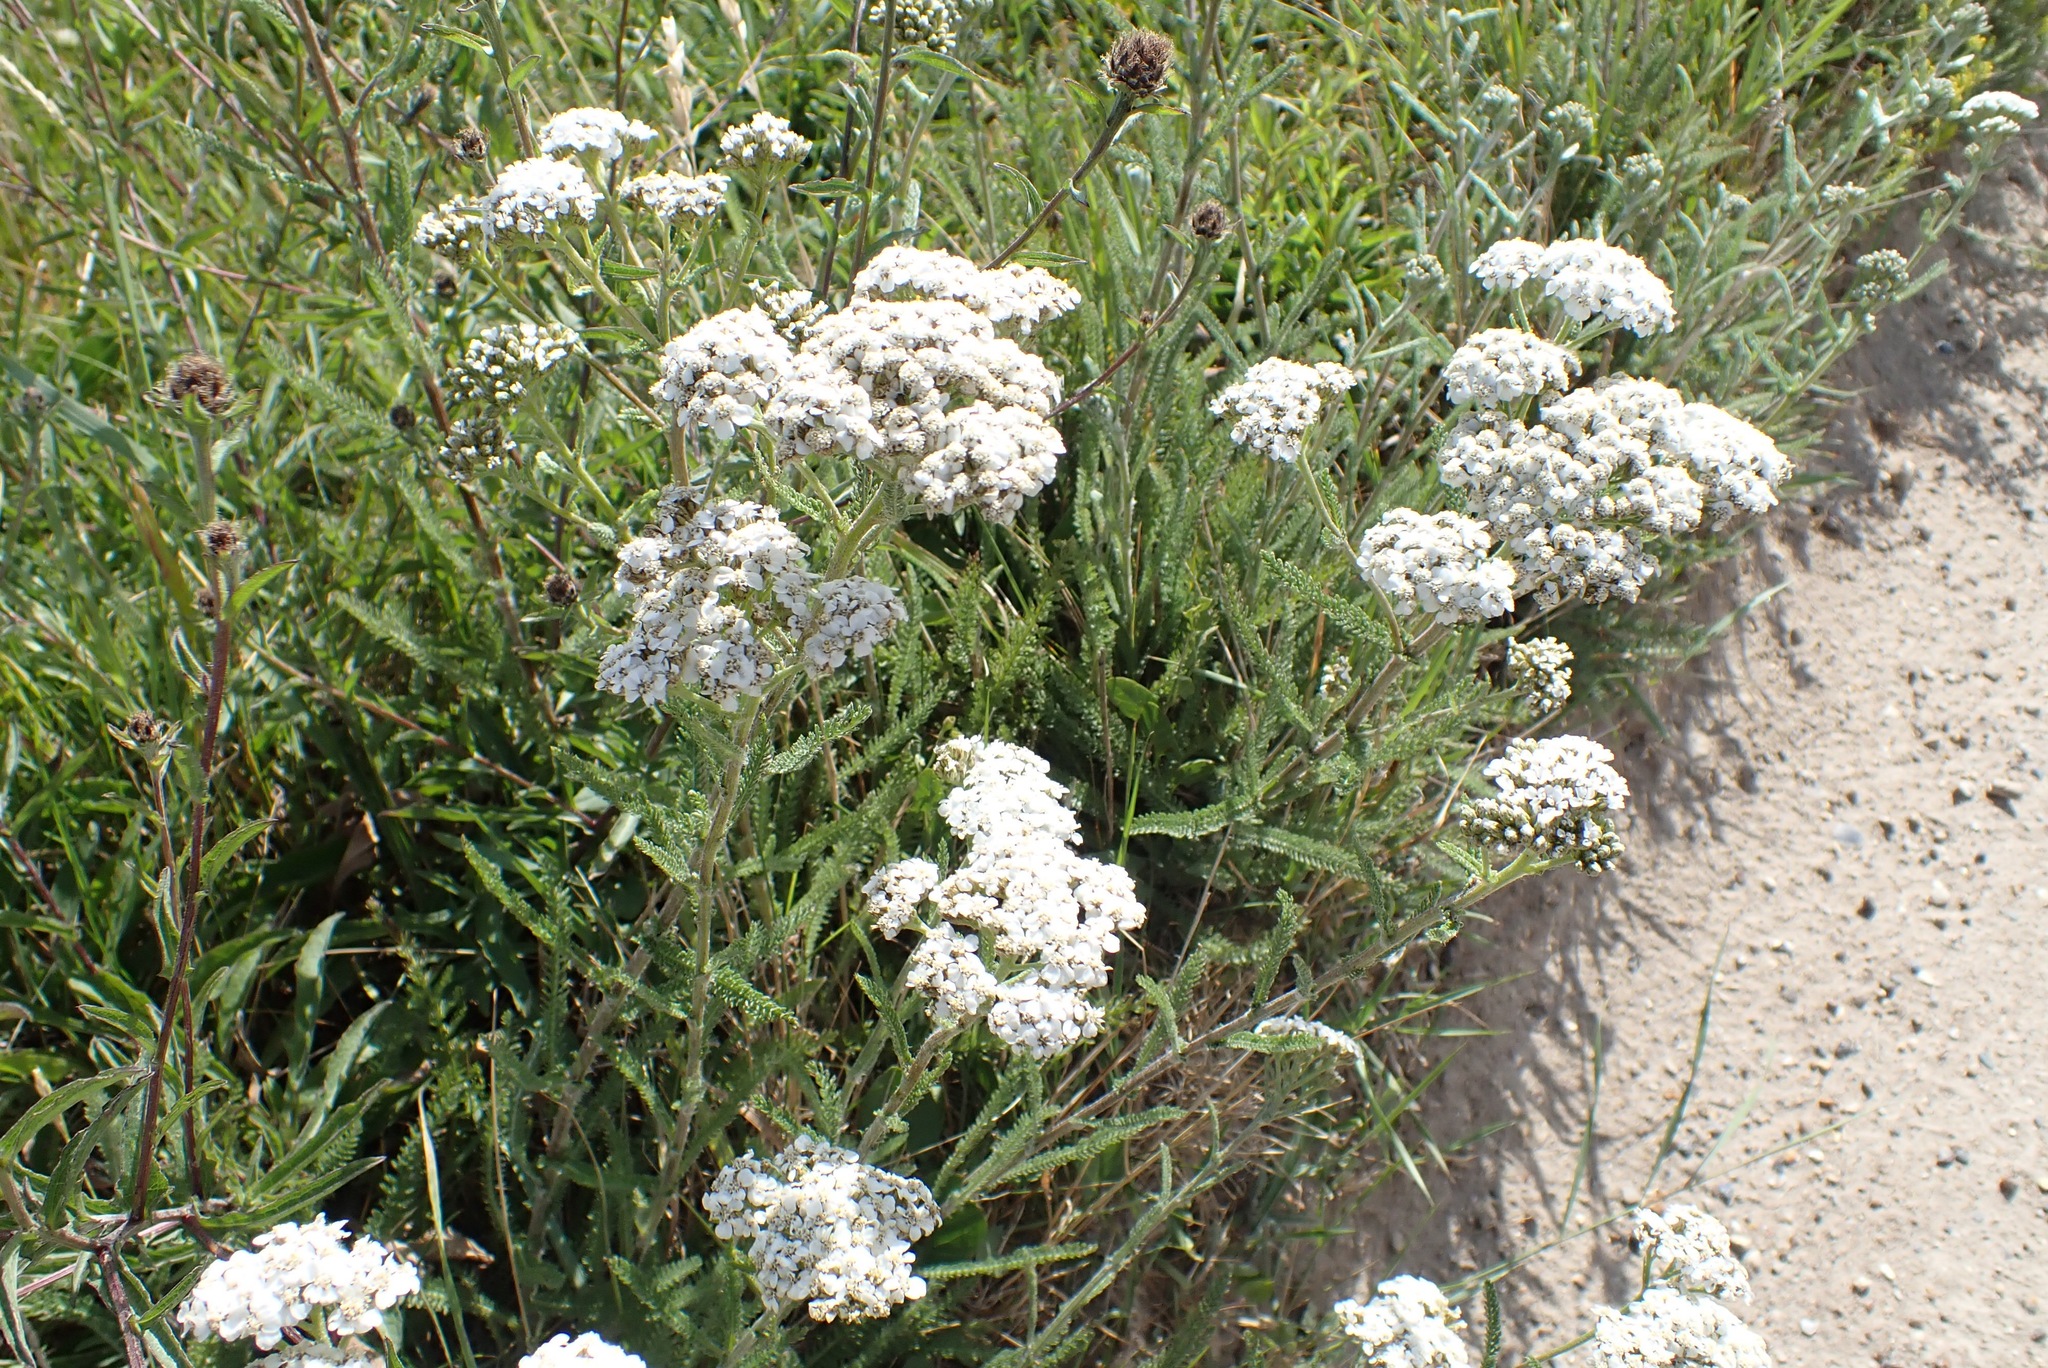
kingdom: Plantae
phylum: Tracheophyta
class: Magnoliopsida
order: Asterales
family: Asteraceae
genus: Achillea
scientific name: Achillea millefolium
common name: Yarrow
